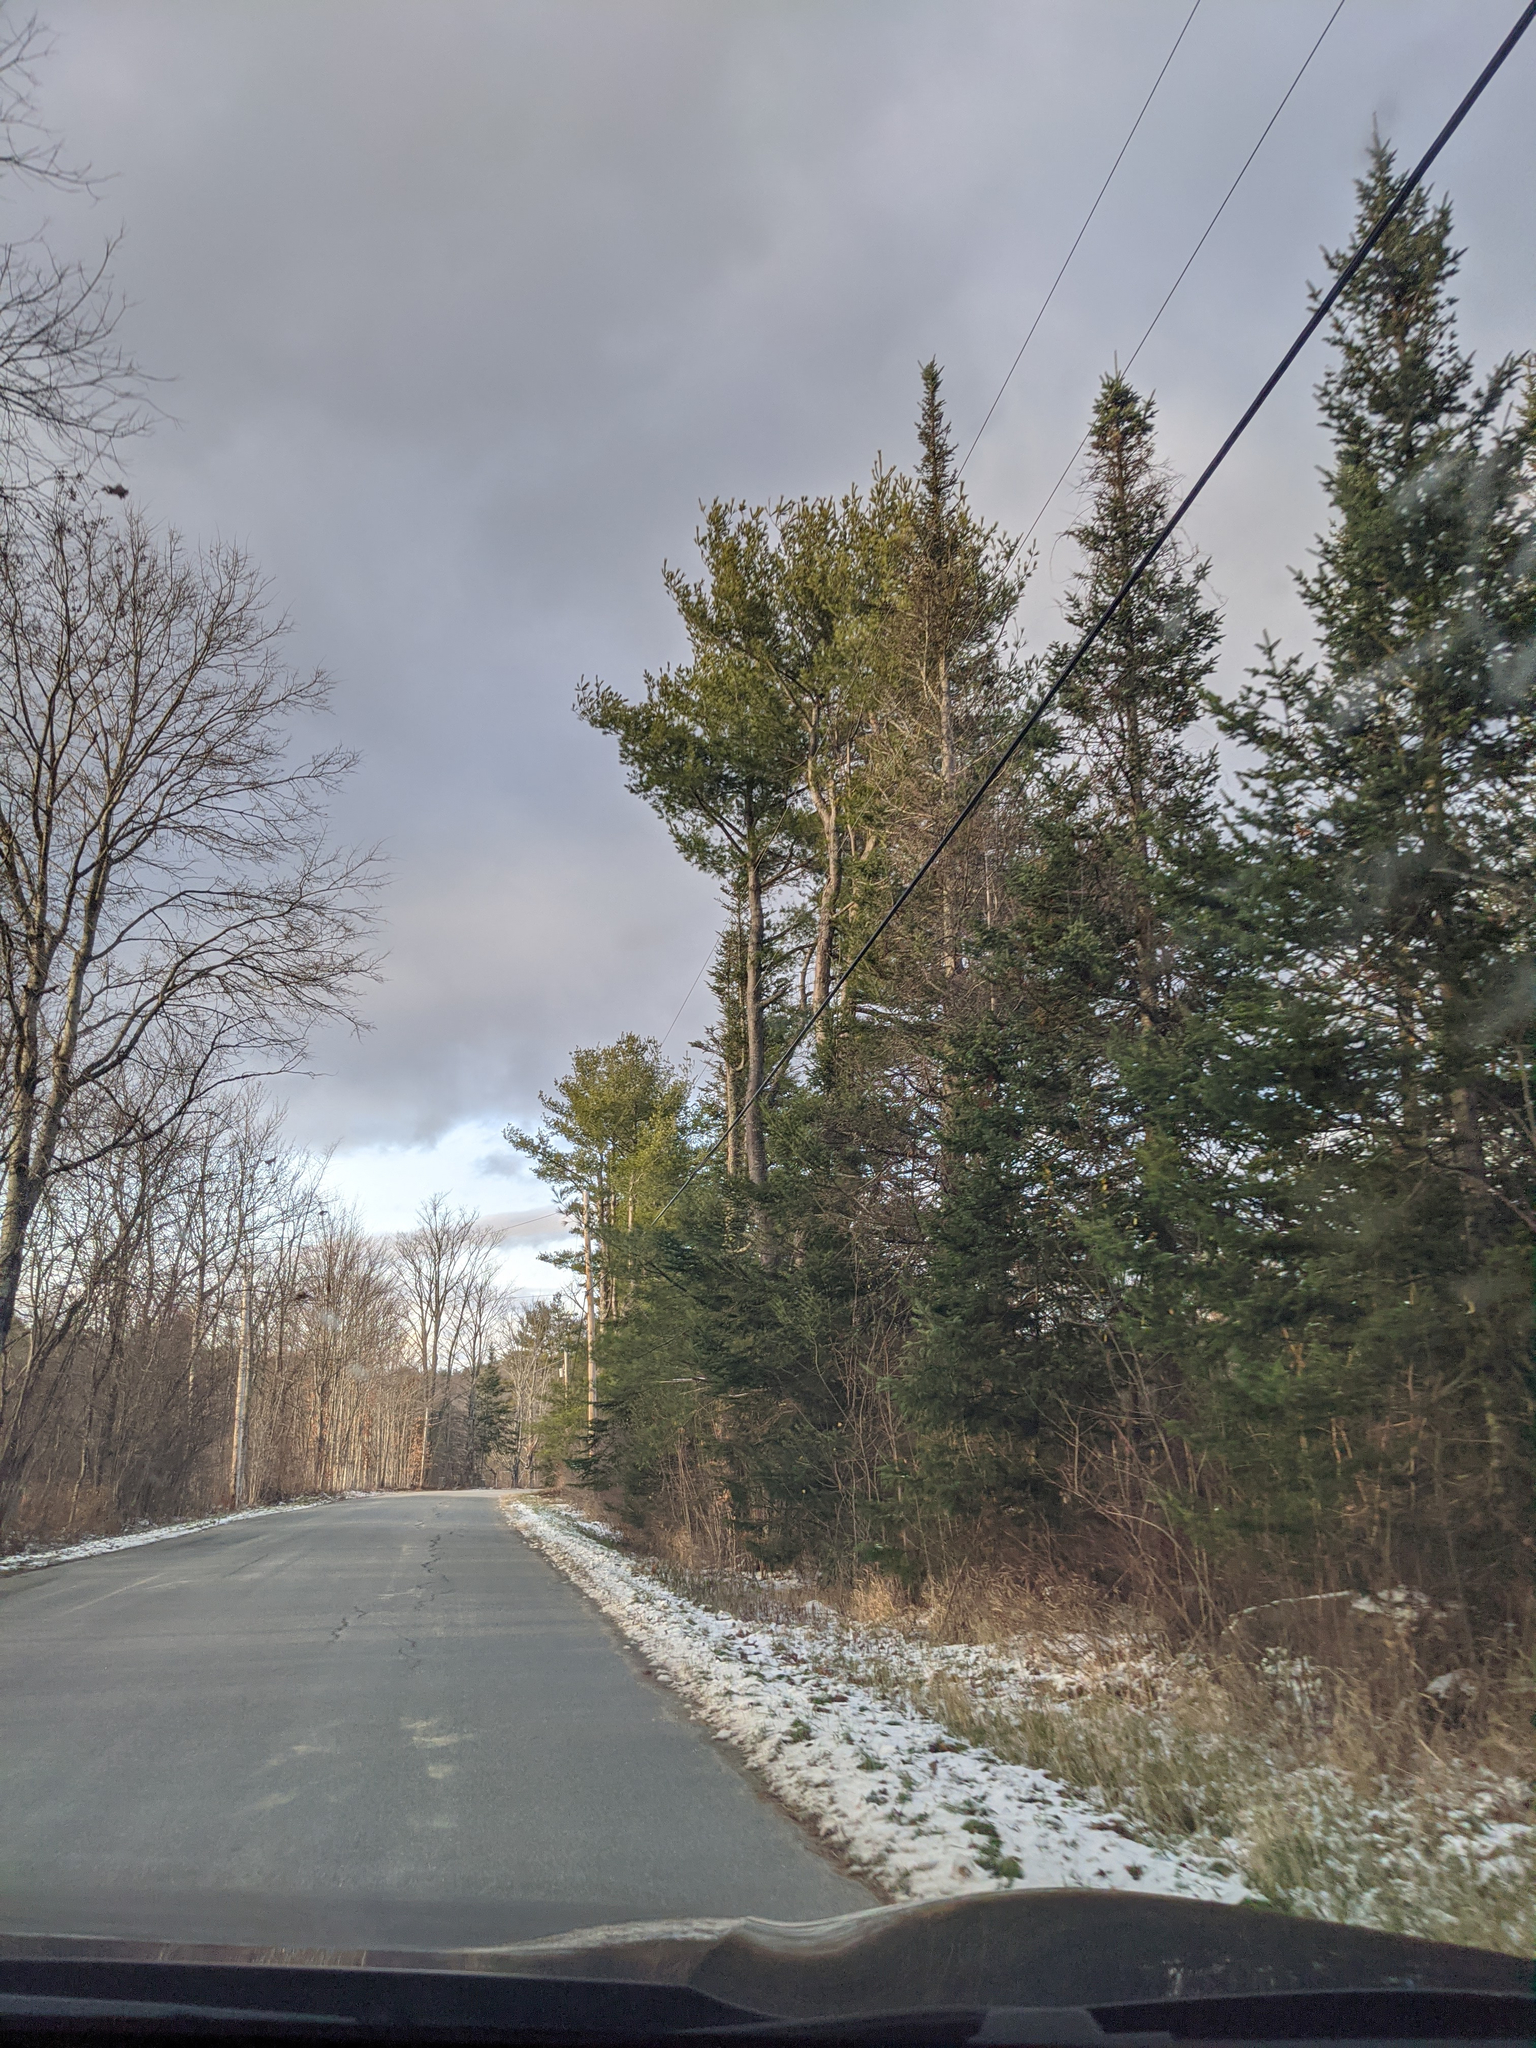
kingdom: Plantae
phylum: Tracheophyta
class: Pinopsida
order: Pinales
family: Pinaceae
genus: Pinus
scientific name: Pinus strobus
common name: Weymouth pine
